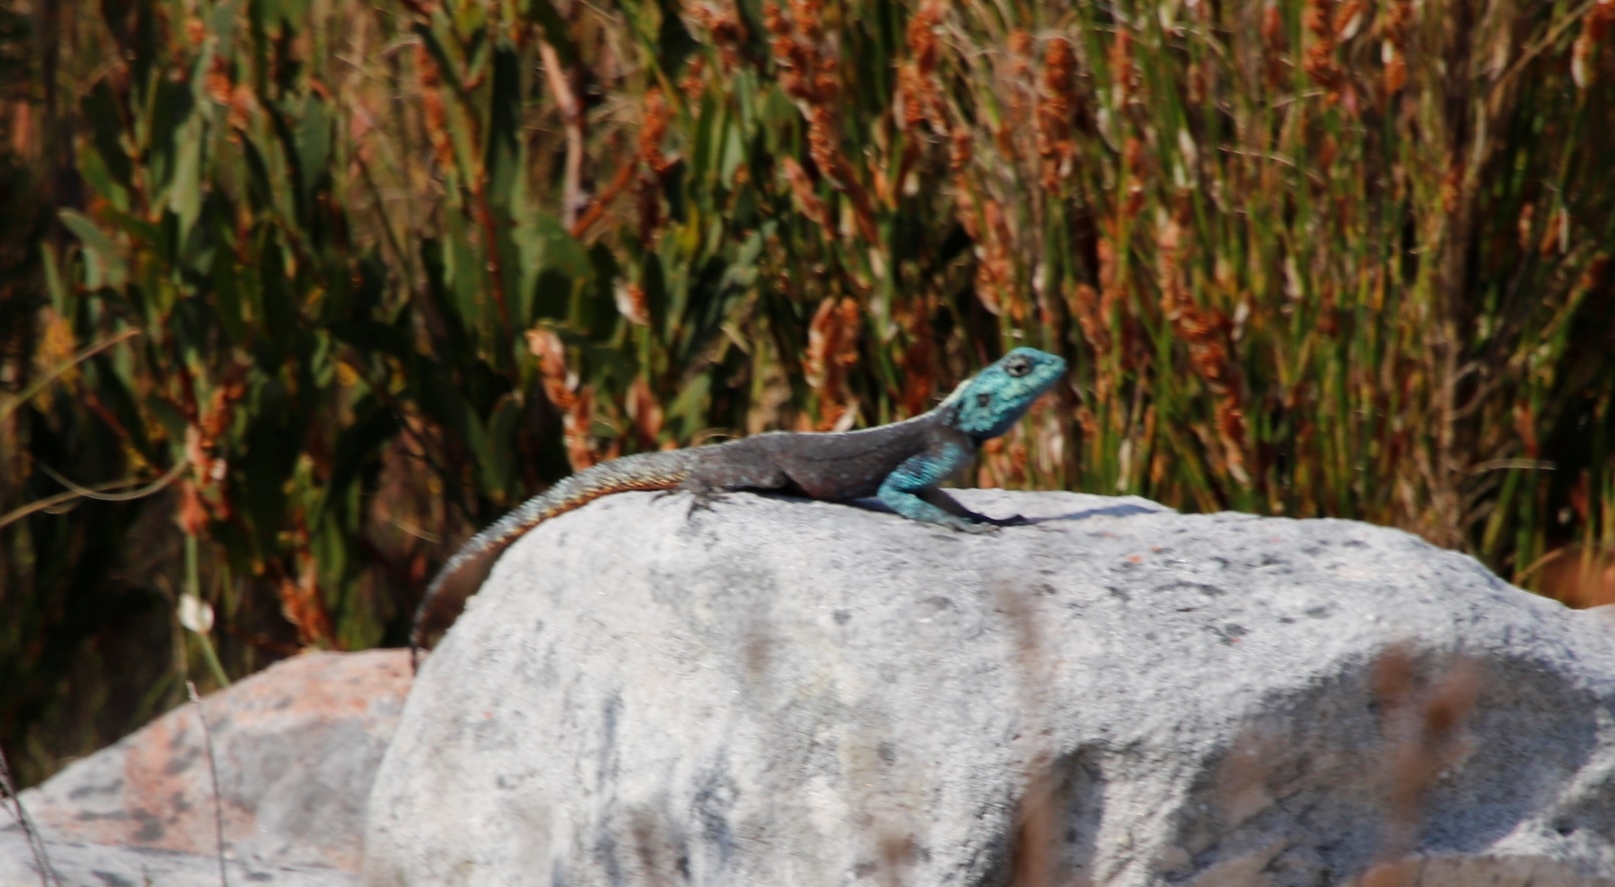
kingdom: Animalia
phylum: Chordata
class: Squamata
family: Agamidae
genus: Agama
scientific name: Agama atra
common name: Southern african rock agama
